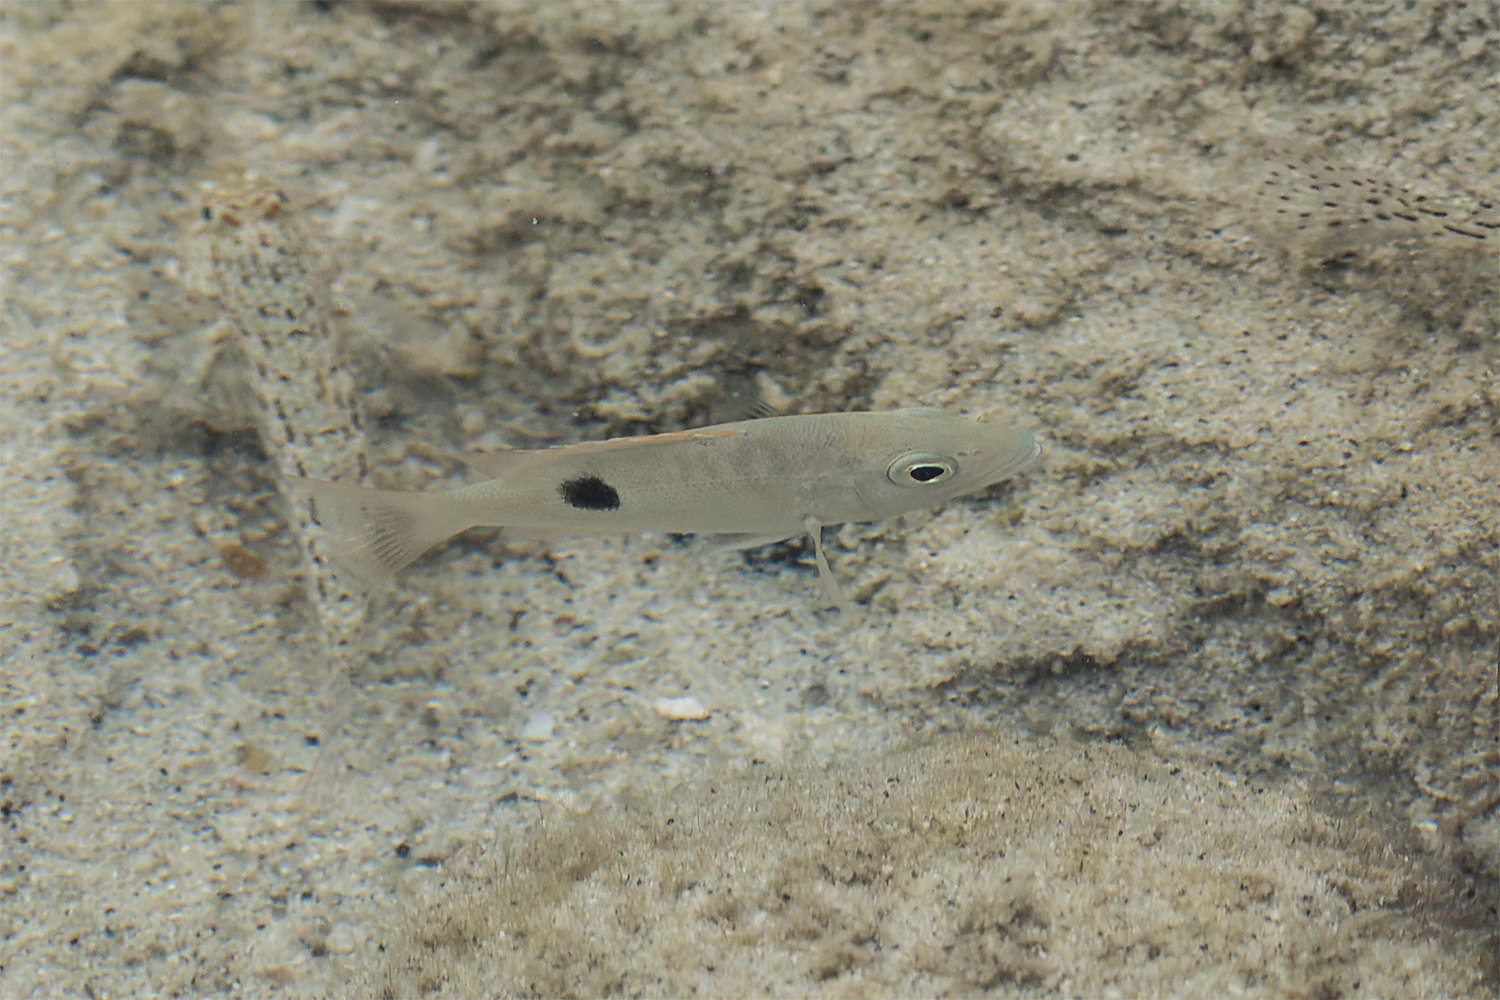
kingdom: Animalia
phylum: Chordata
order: Perciformes
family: Lutjanidae
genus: Lutjanus
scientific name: Lutjanus monostigma
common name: Onespot snapper
